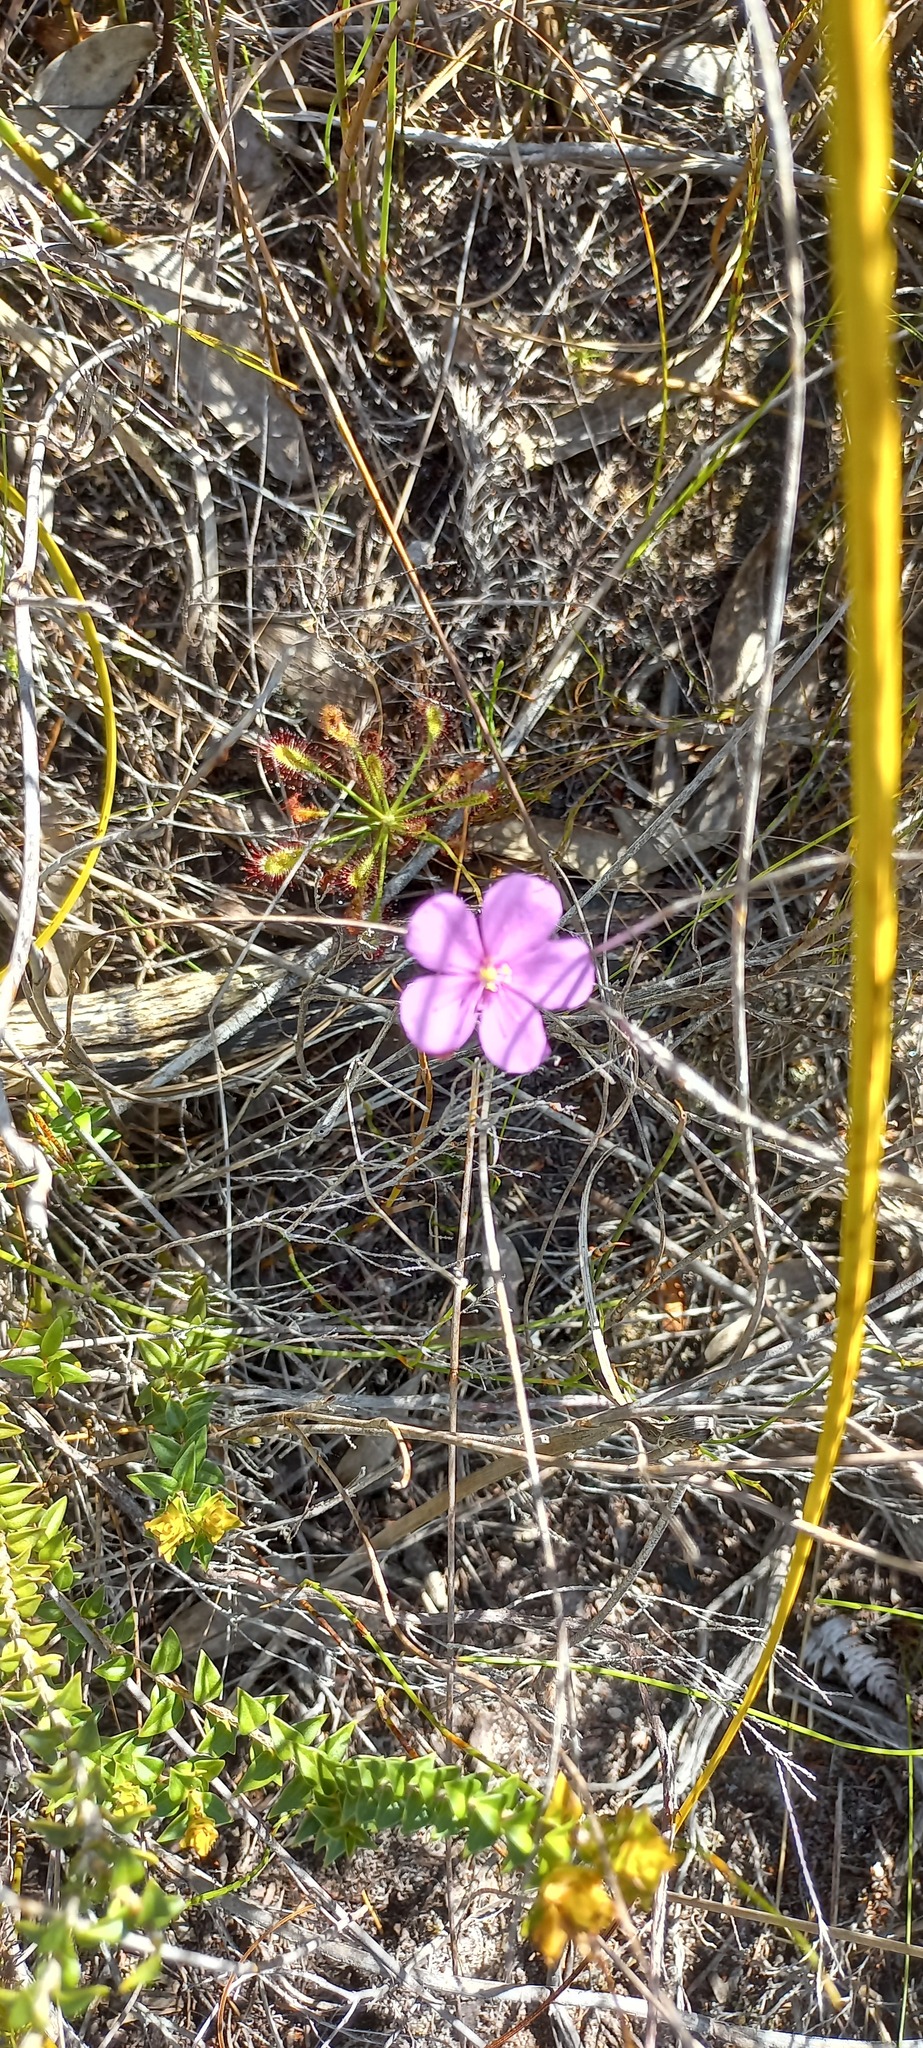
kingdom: Plantae
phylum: Tracheophyta
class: Magnoliopsida
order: Caryophyllales
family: Droseraceae
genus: Drosera
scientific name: Drosera glabripes
